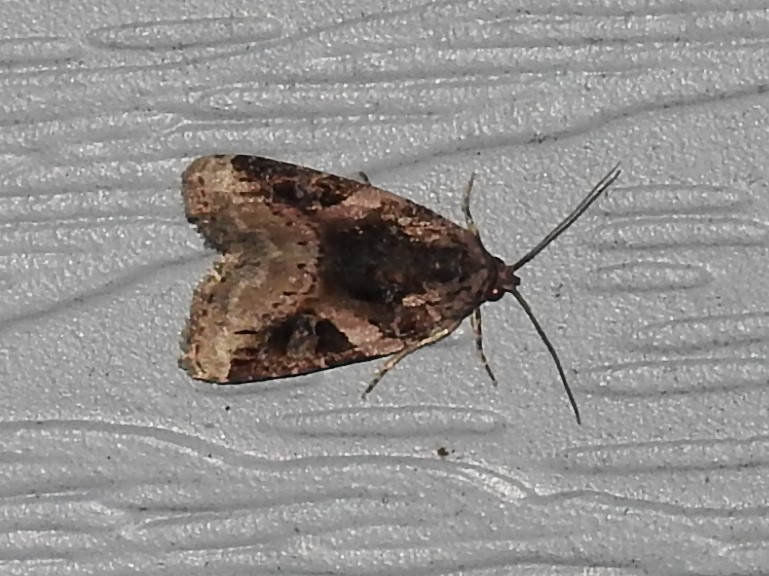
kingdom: Animalia
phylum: Arthropoda
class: Insecta
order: Lepidoptera
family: Noctuidae
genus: Pseudeustrotia
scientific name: Pseudeustrotia carneola
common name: Pink-barred lithacodia moth
